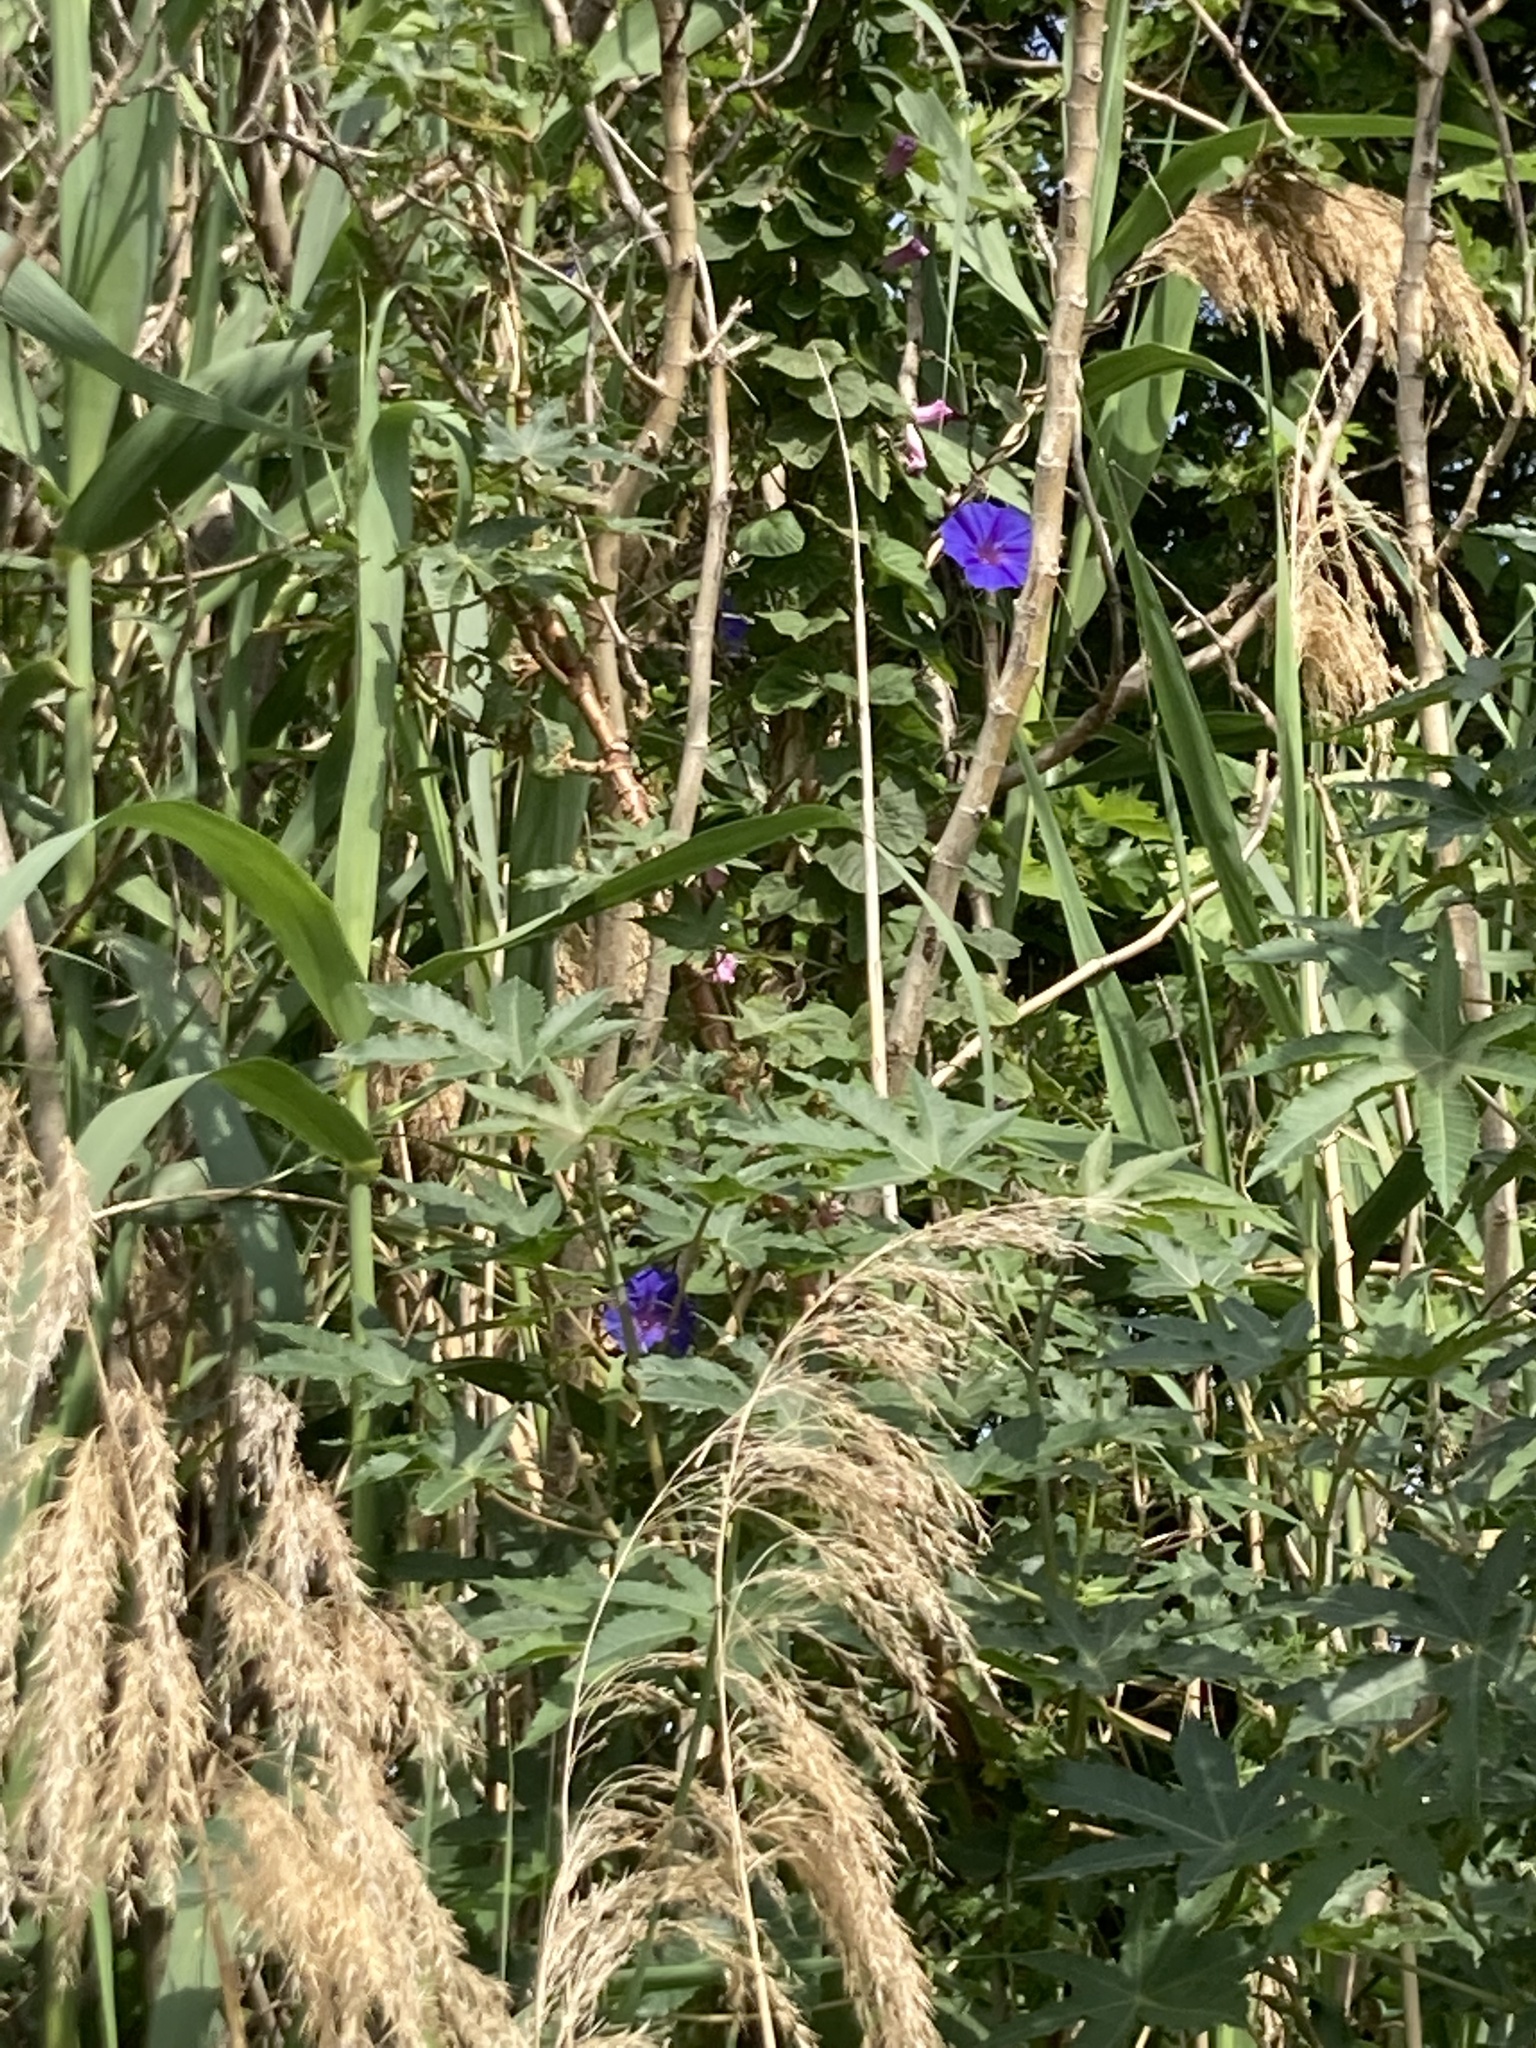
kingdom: Plantae
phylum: Tracheophyta
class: Magnoliopsida
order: Solanales
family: Convolvulaceae
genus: Ipomoea
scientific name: Ipomoea indica
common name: Blue dawnflower
